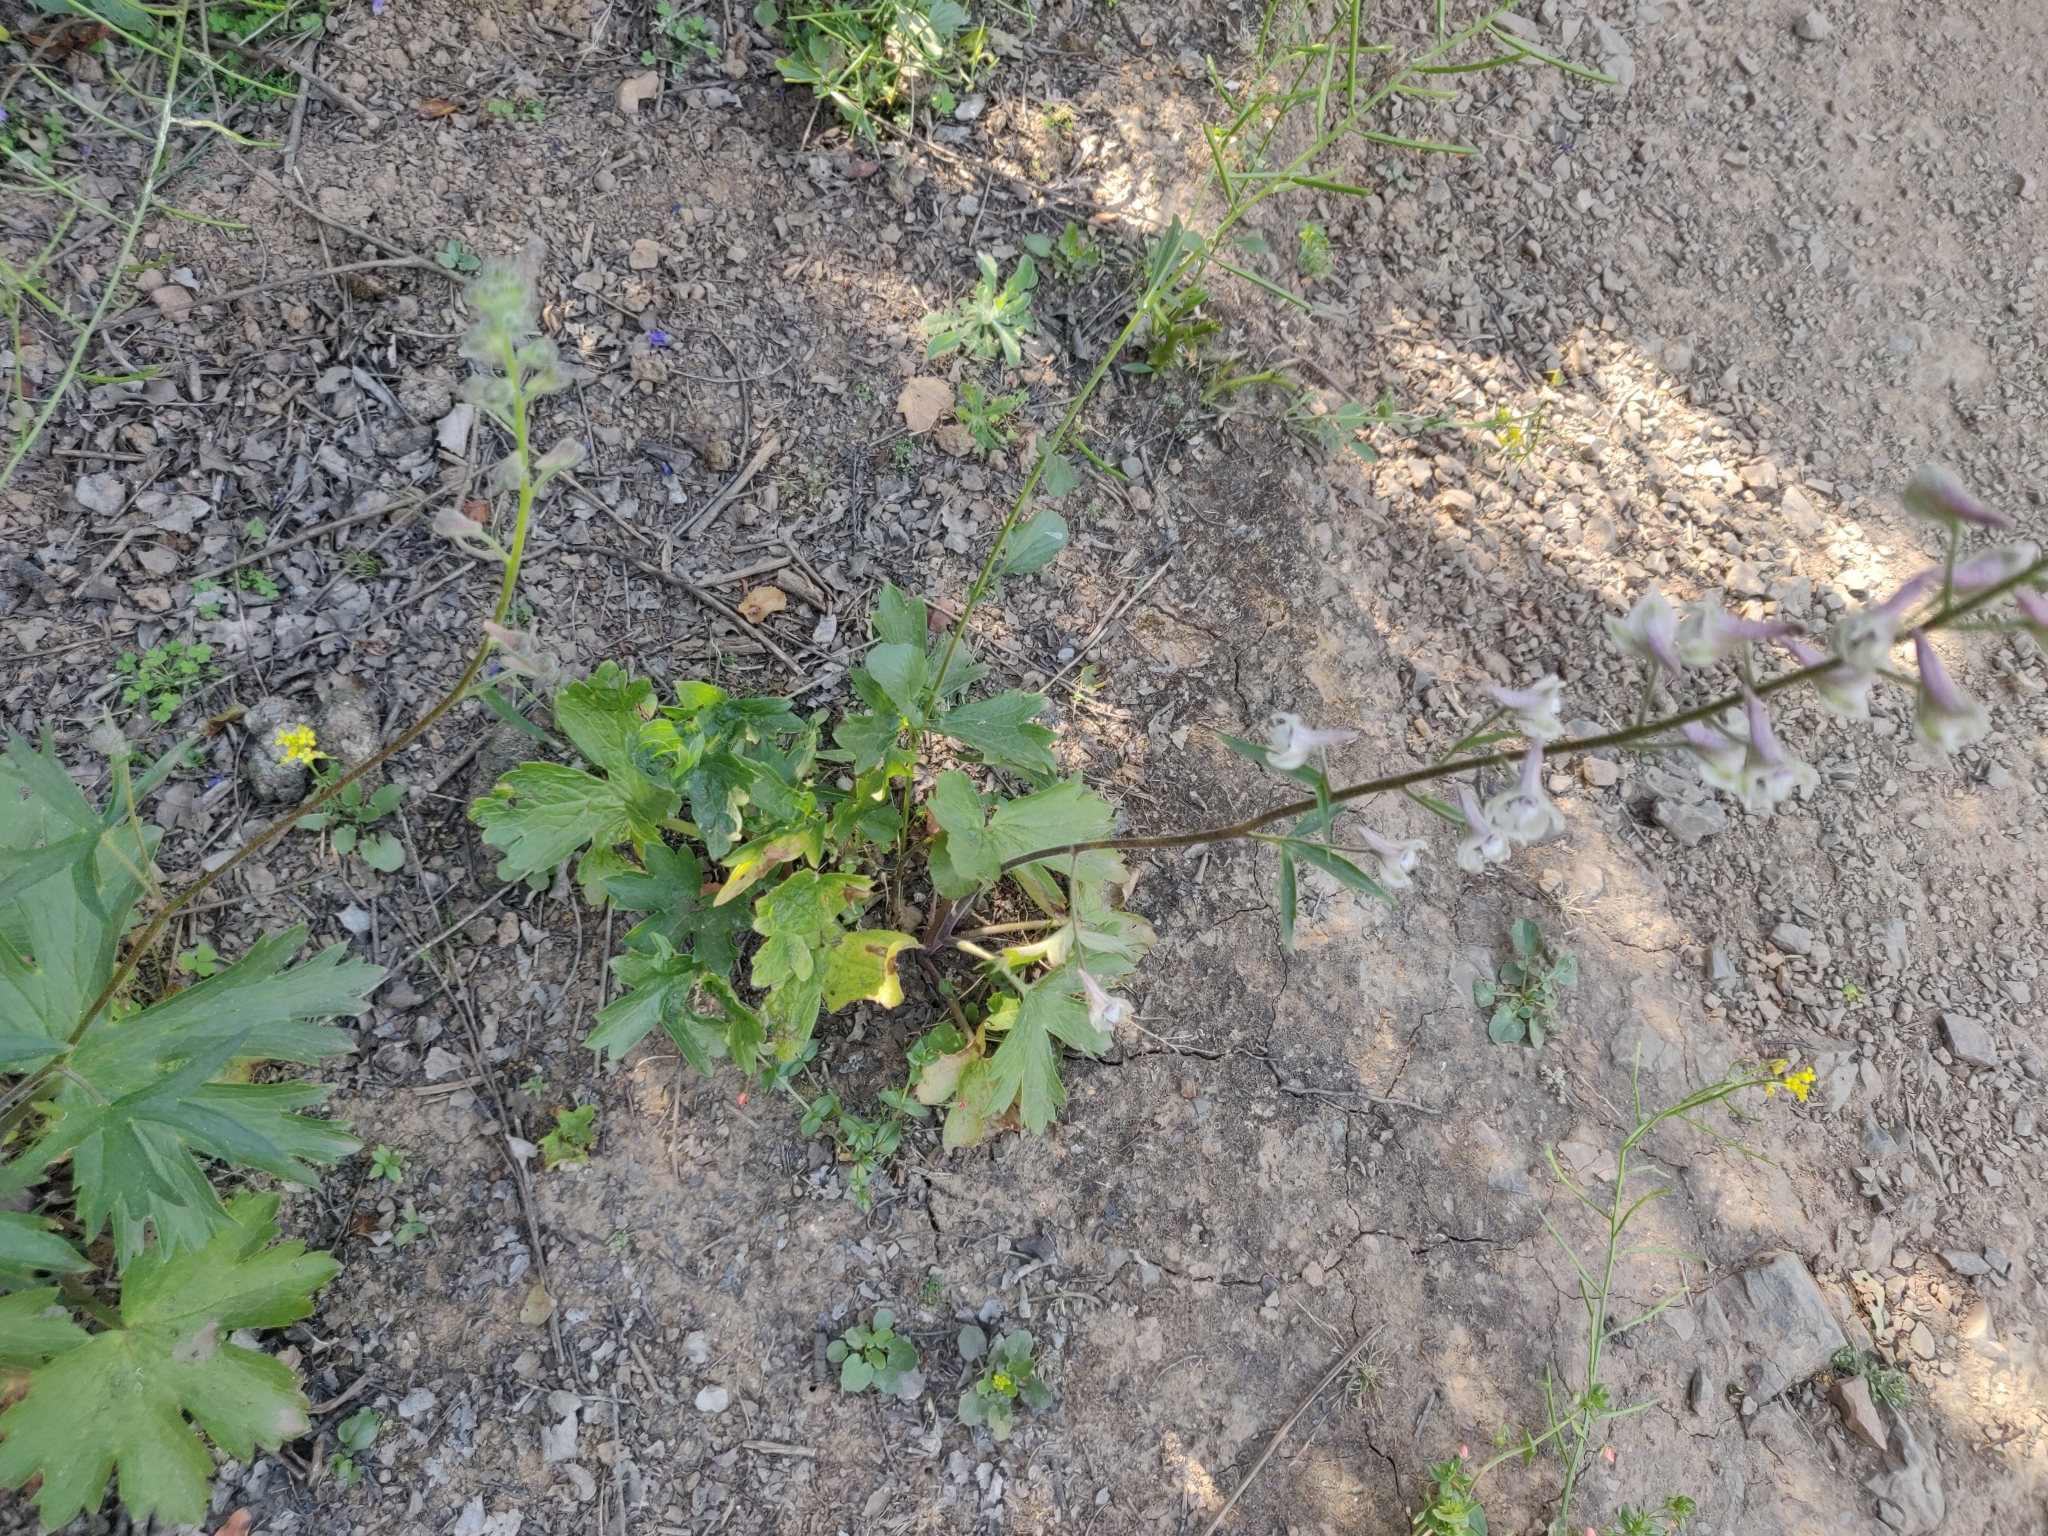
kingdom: Plantae
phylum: Tracheophyta
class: Magnoliopsida
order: Ranunculales
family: Ranunculaceae
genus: Delphinium
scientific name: Delphinium californicum
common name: California larkspur
